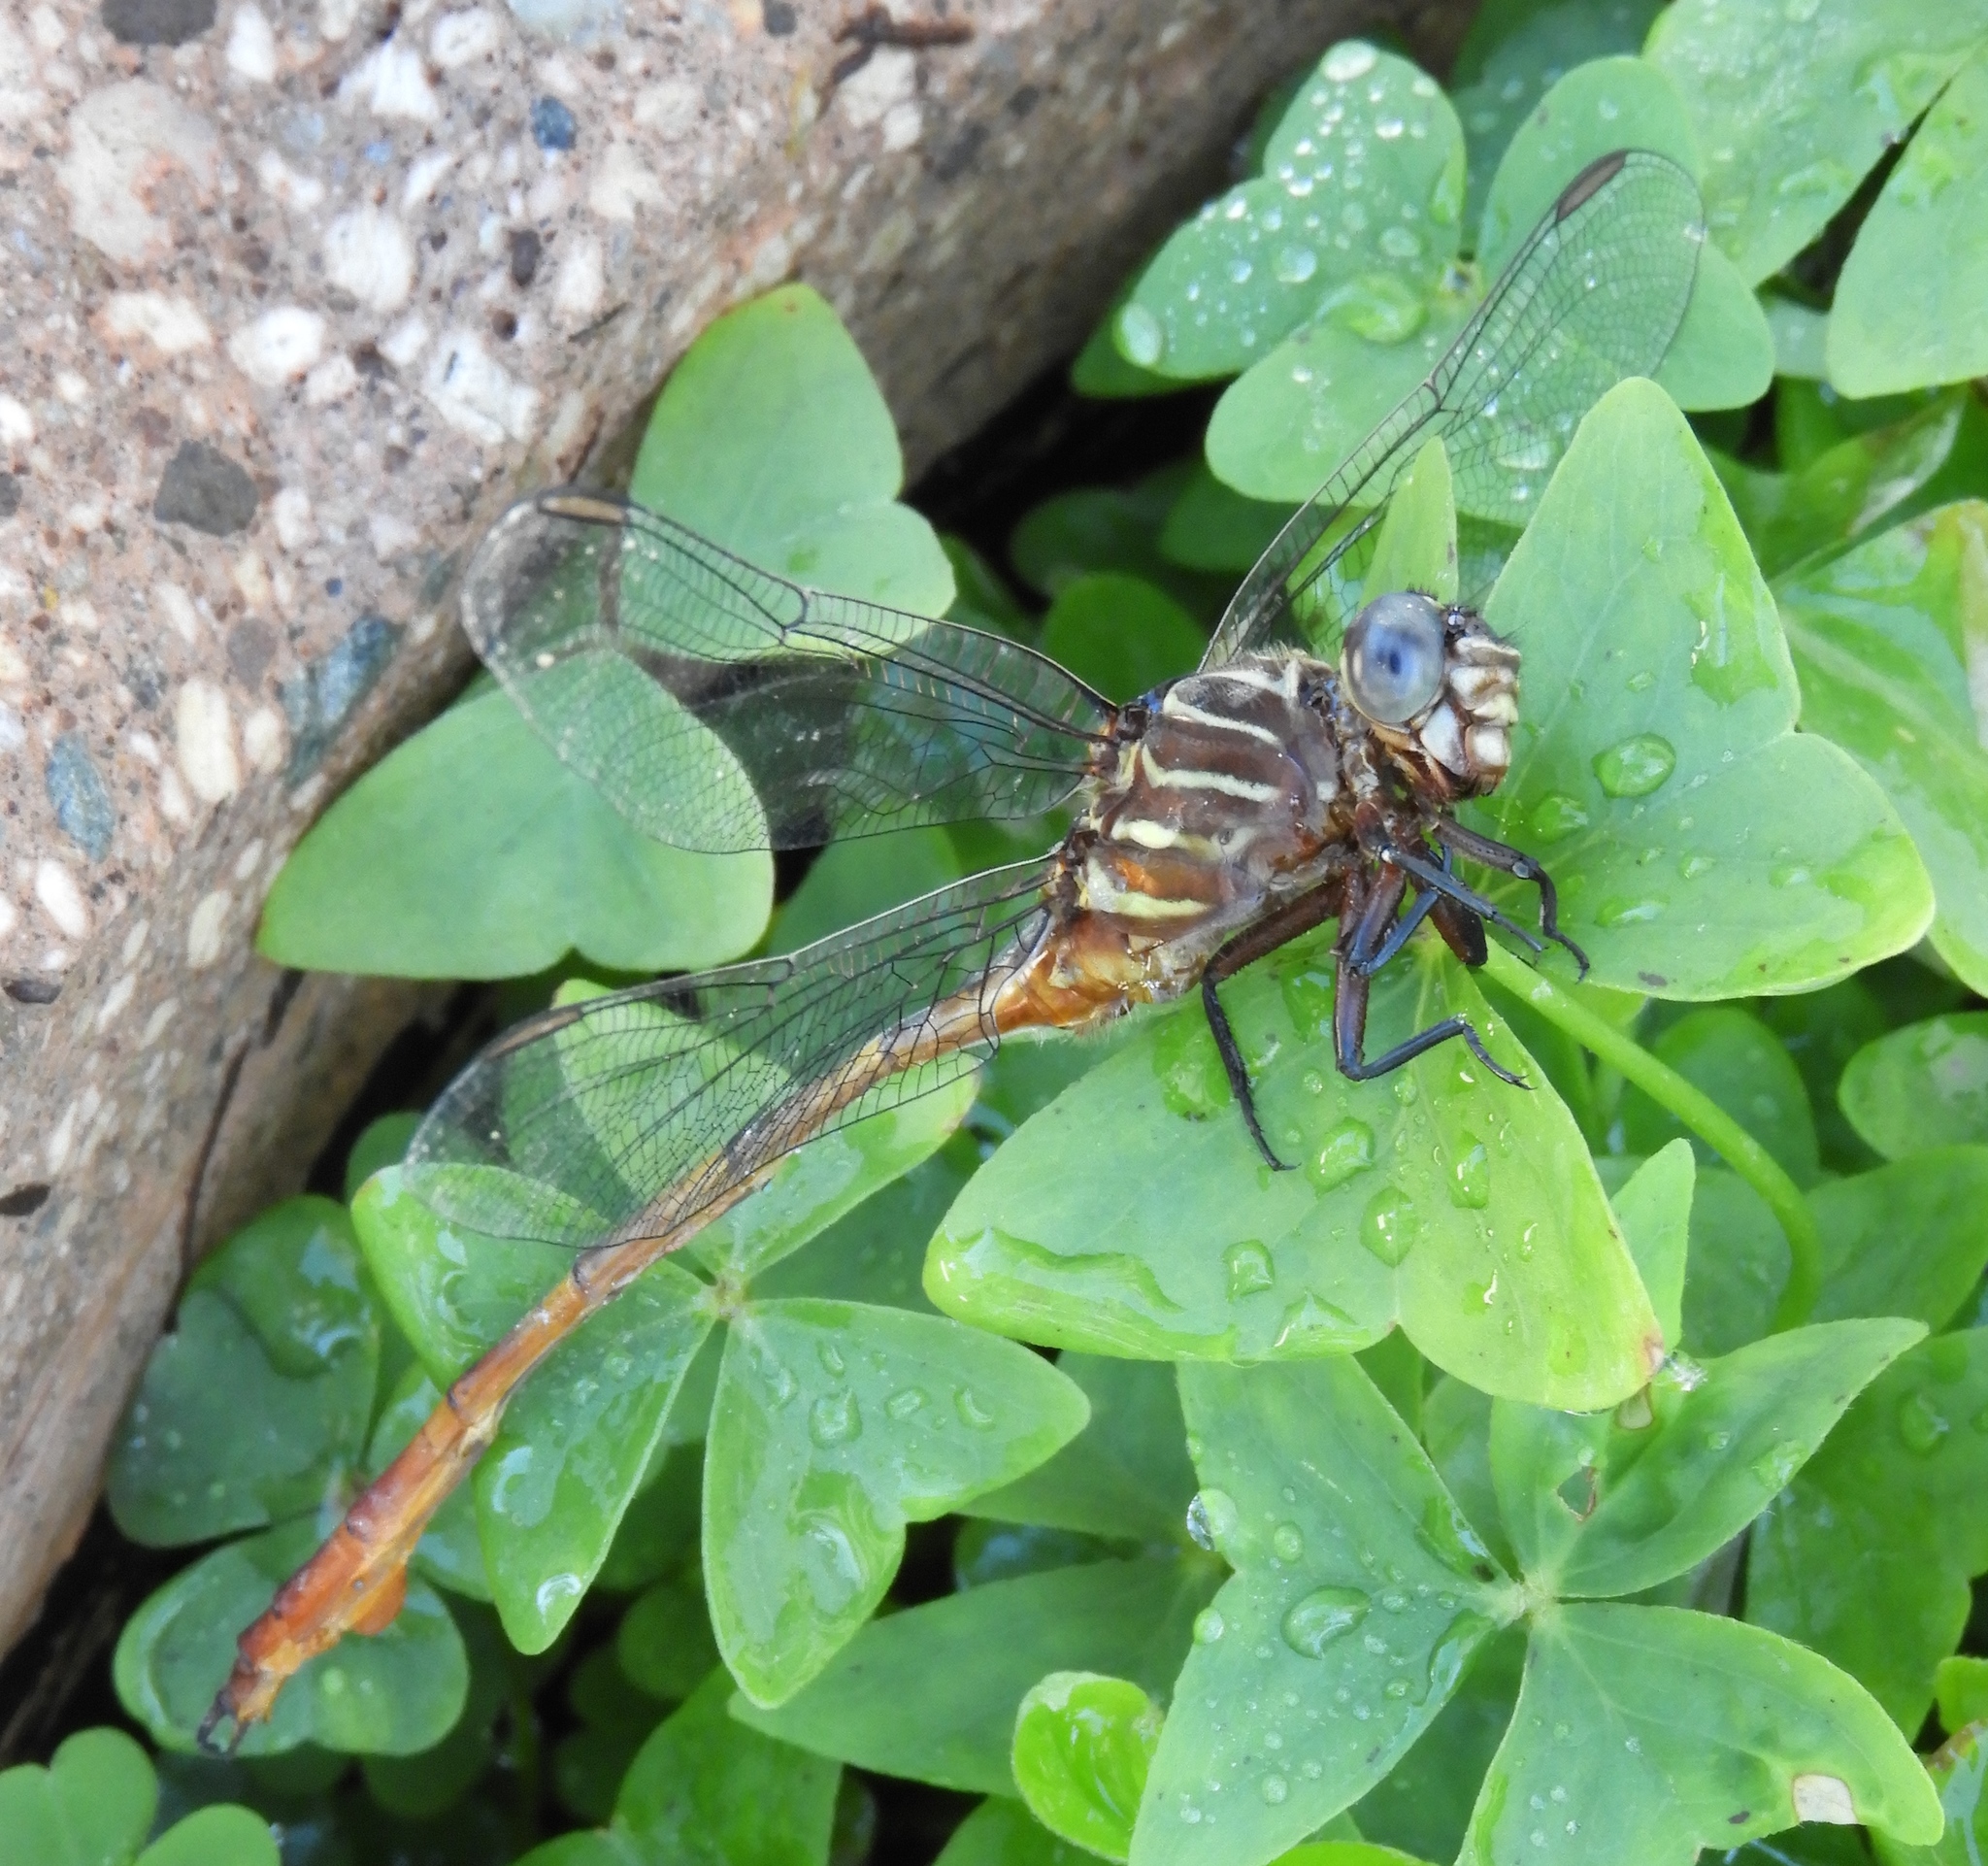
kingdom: Animalia
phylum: Arthropoda
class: Insecta
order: Odonata
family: Gomphidae
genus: Aphylla
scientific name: Aphylla protracta
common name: Narrow-striped forceptail
